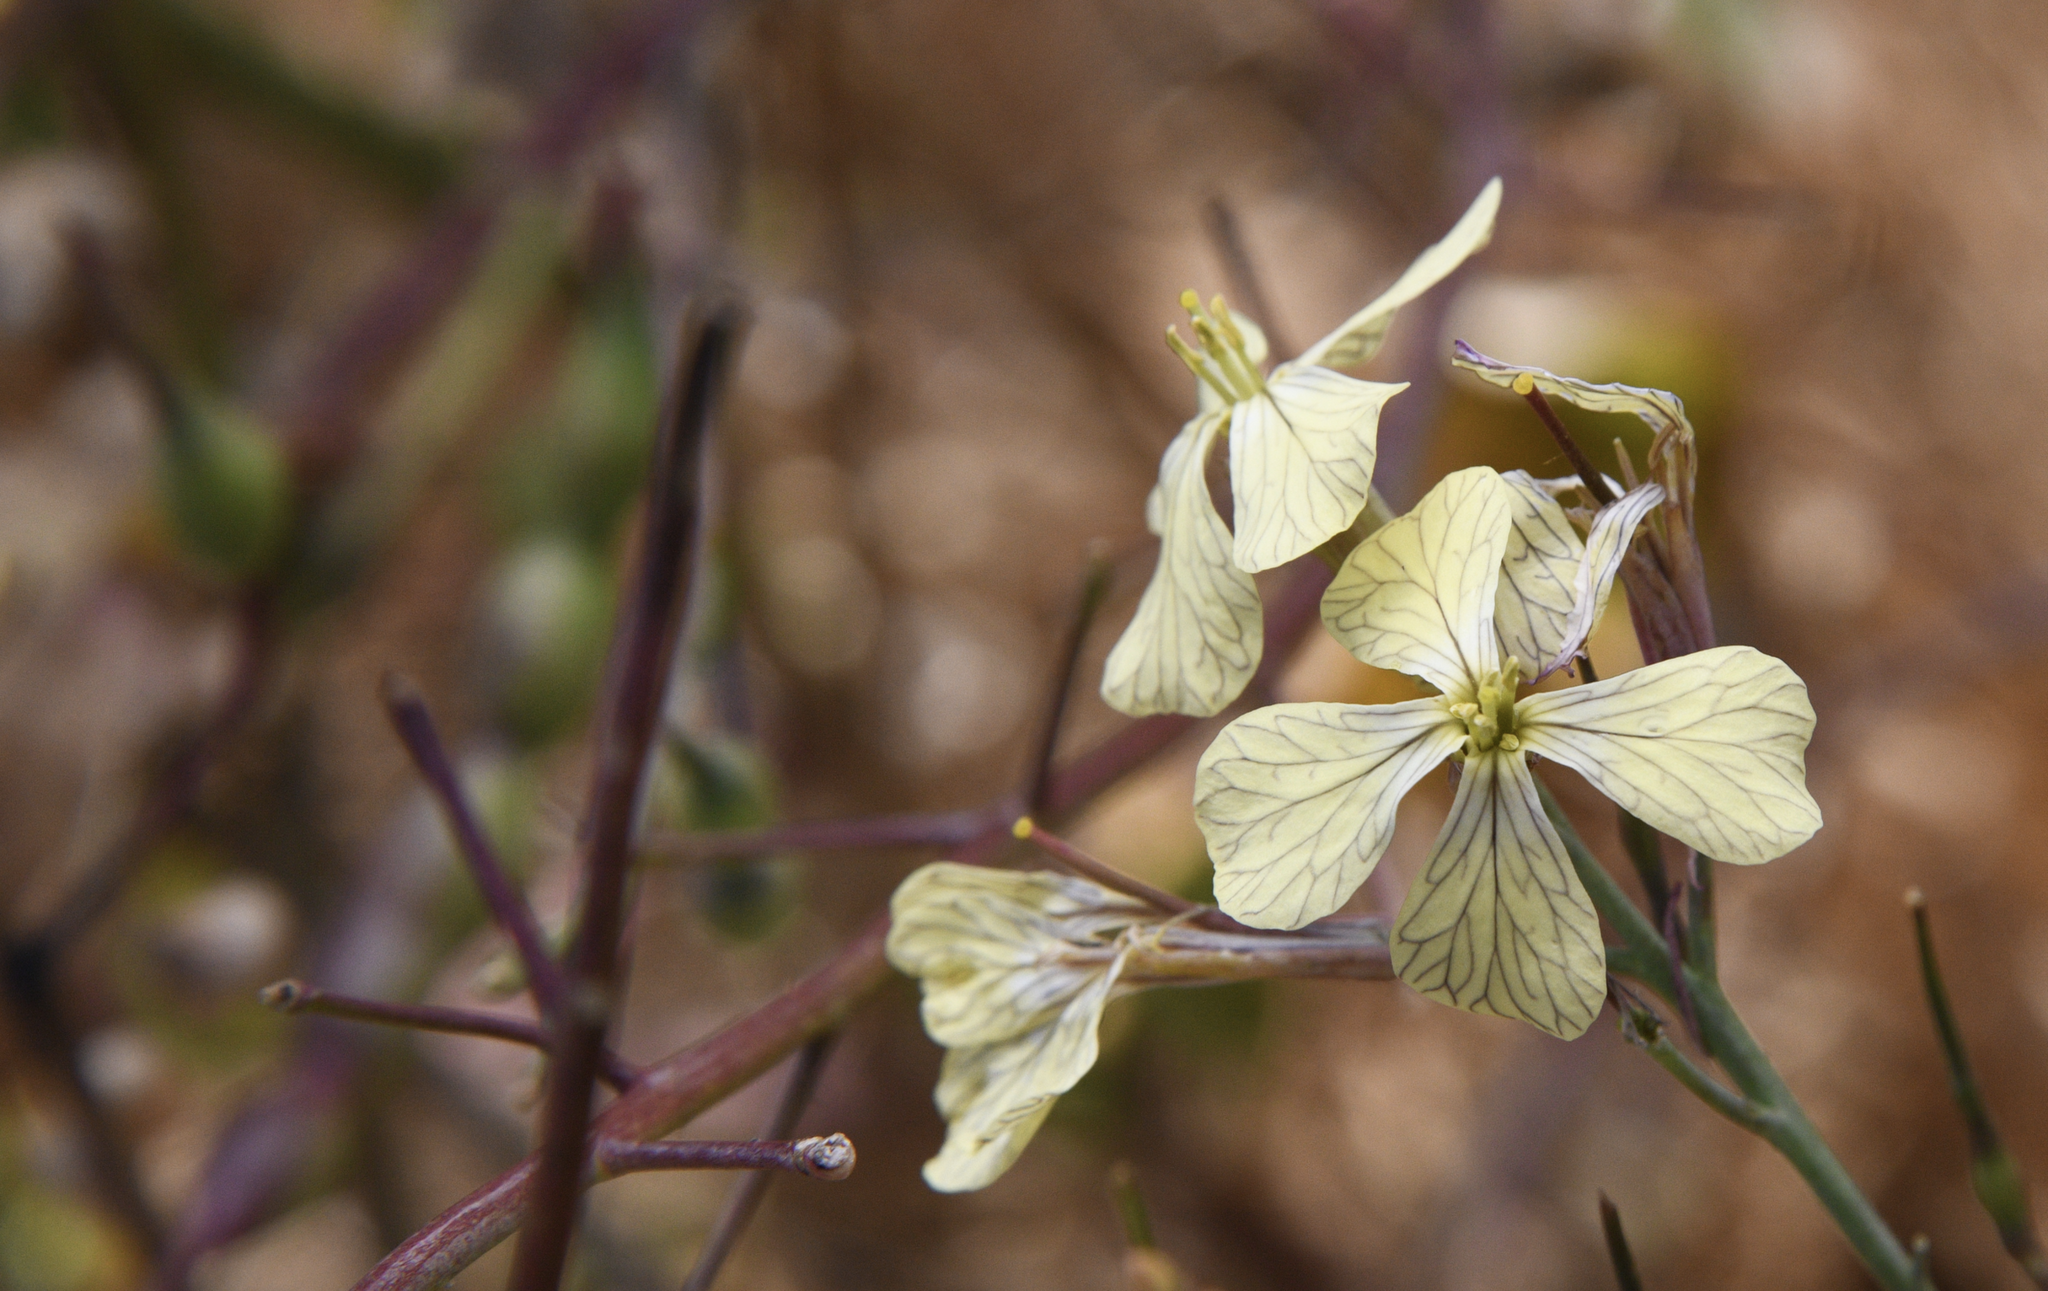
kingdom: Plantae
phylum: Tracheophyta
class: Magnoliopsida
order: Brassicales
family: Brassicaceae
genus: Raphanus
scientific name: Raphanus sativus
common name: Cultivated radish
